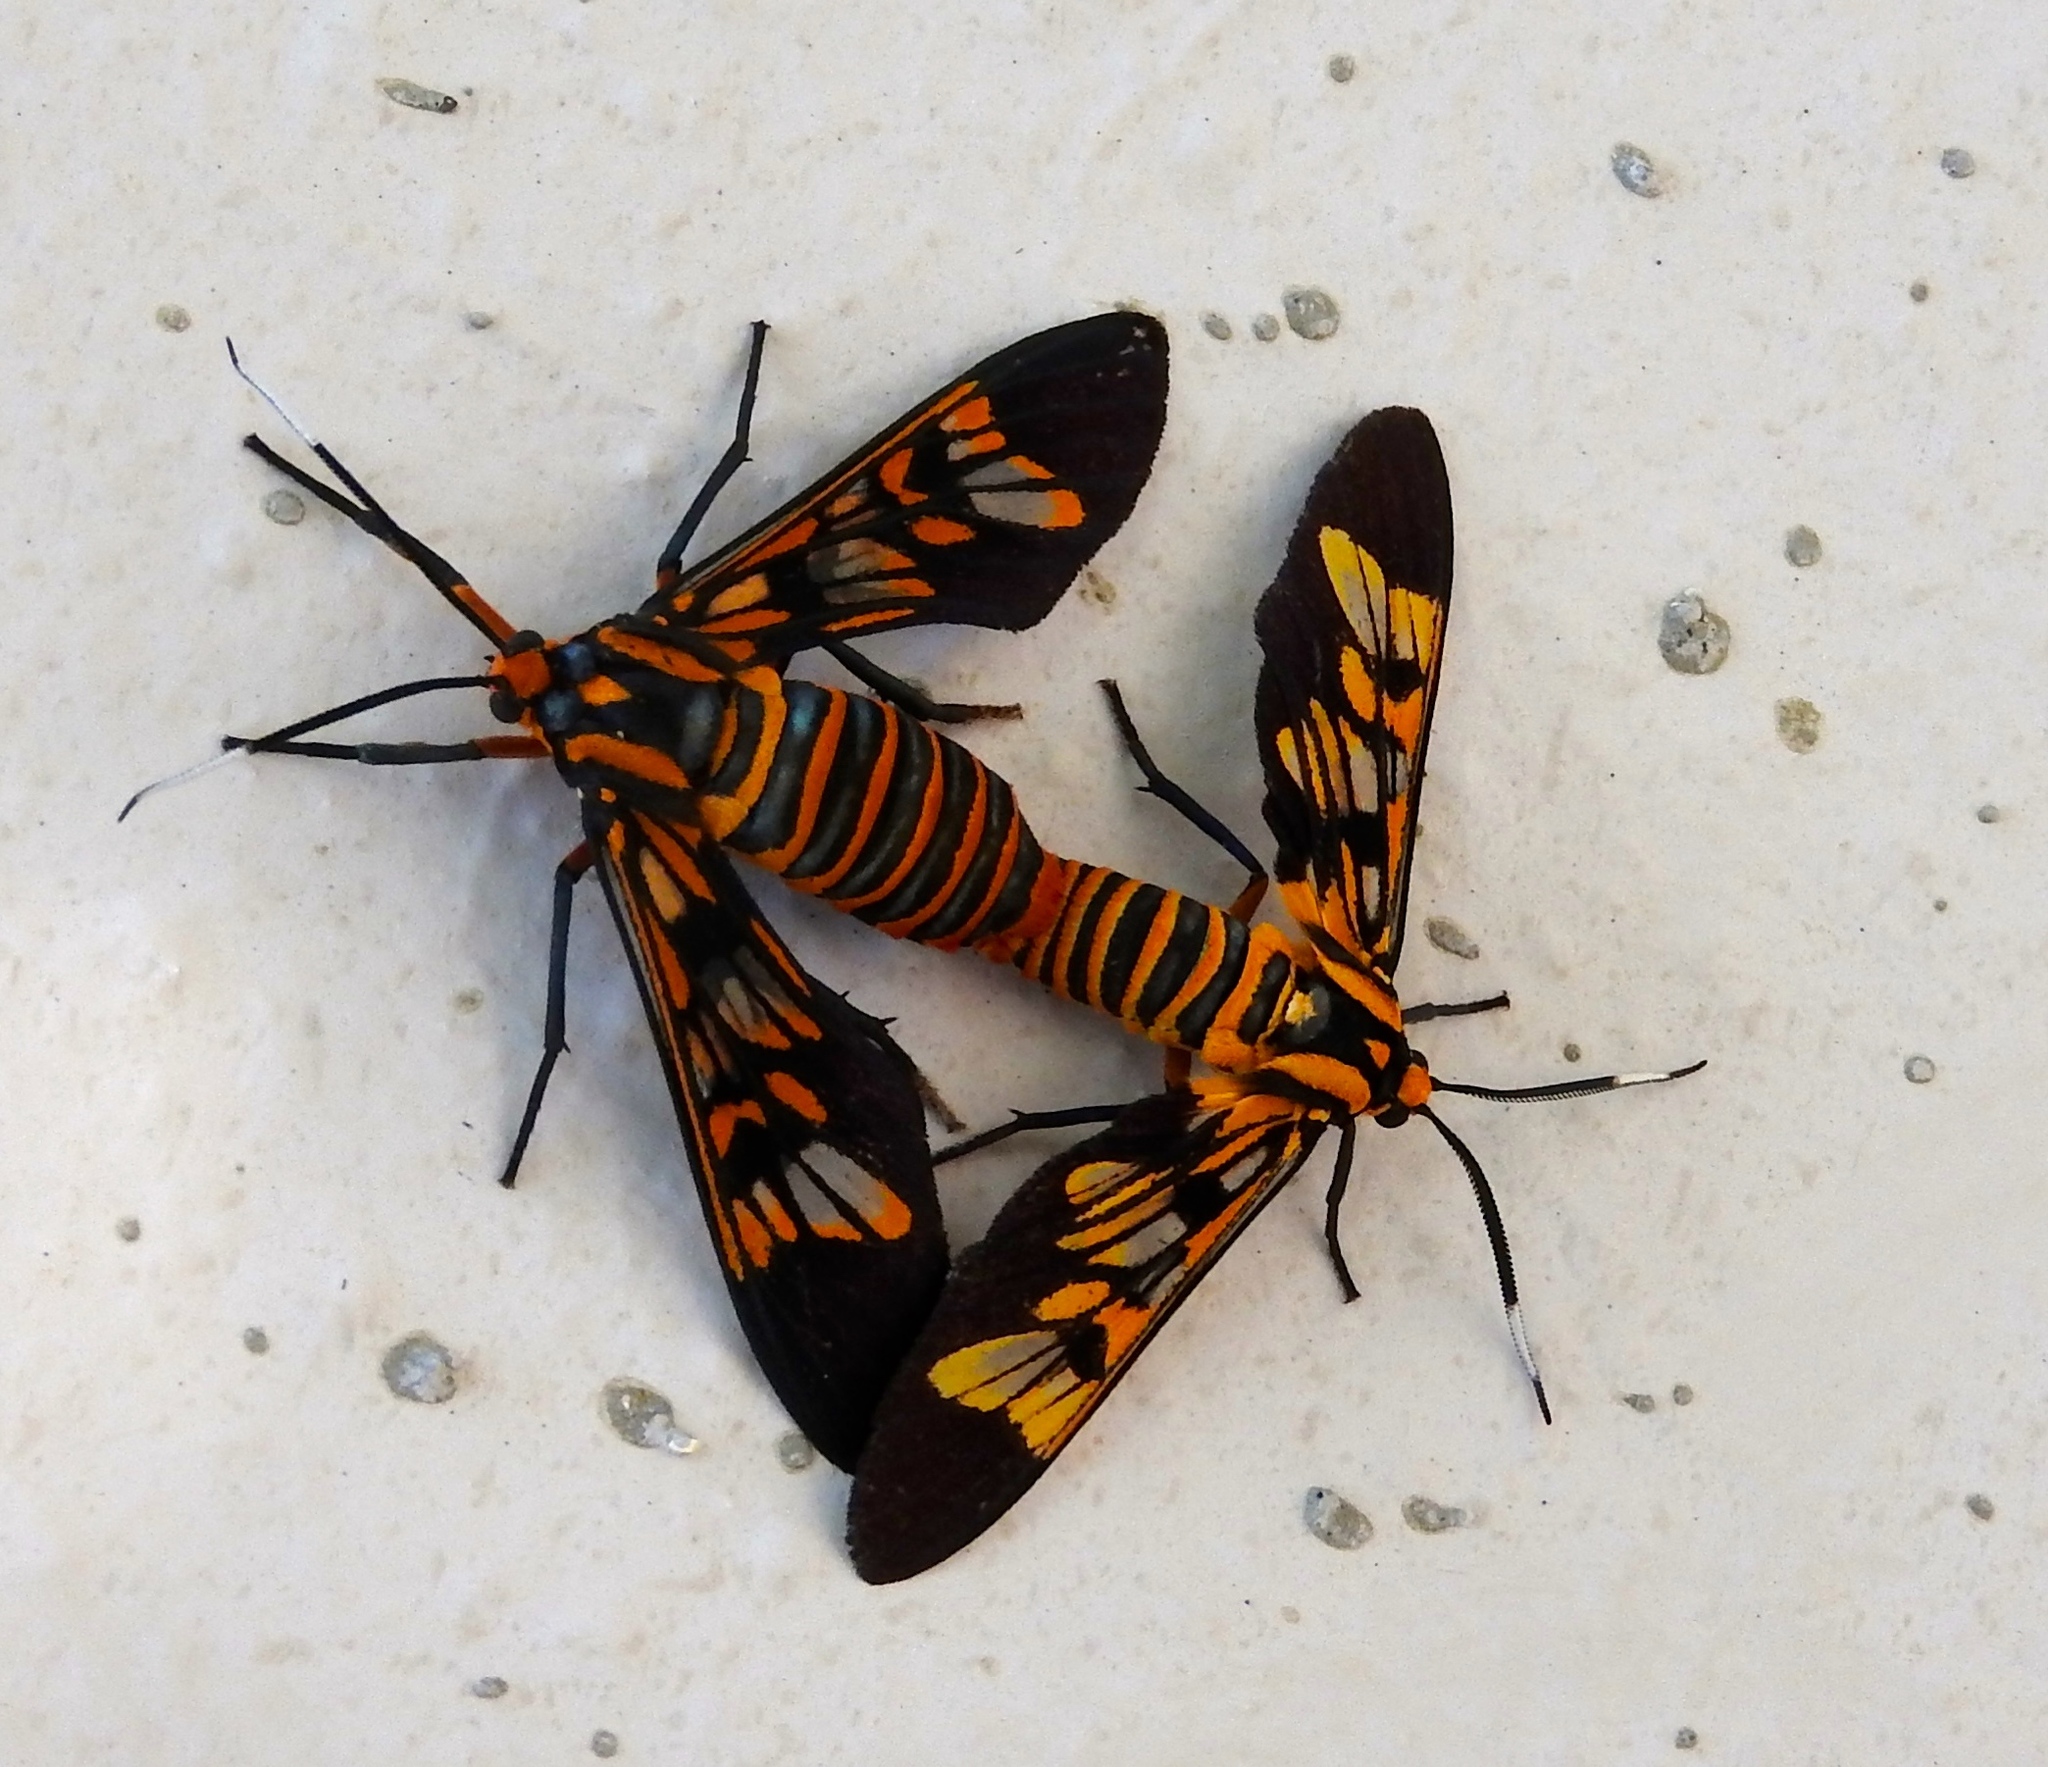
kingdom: Animalia
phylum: Arthropoda
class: Insecta
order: Lepidoptera
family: Erebidae
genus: Leucotmemis
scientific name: Leucotmemis pardalimacula
